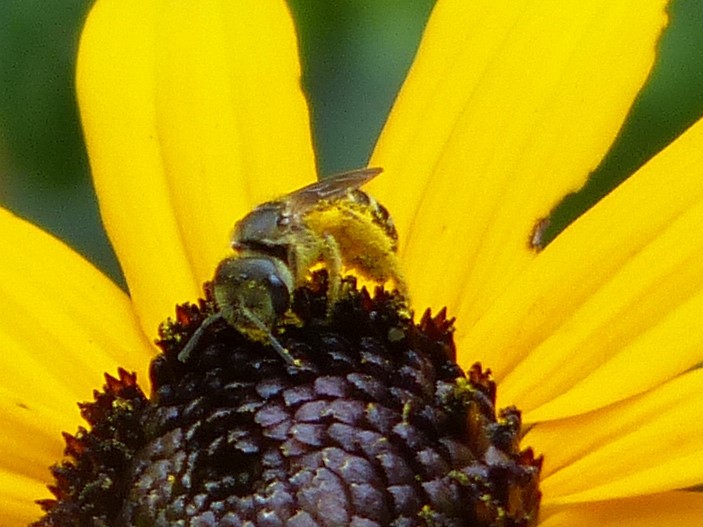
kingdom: Animalia
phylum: Arthropoda
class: Insecta
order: Hymenoptera
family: Halictidae
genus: Halictus
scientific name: Halictus ligatus
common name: Ligated furrow bee
